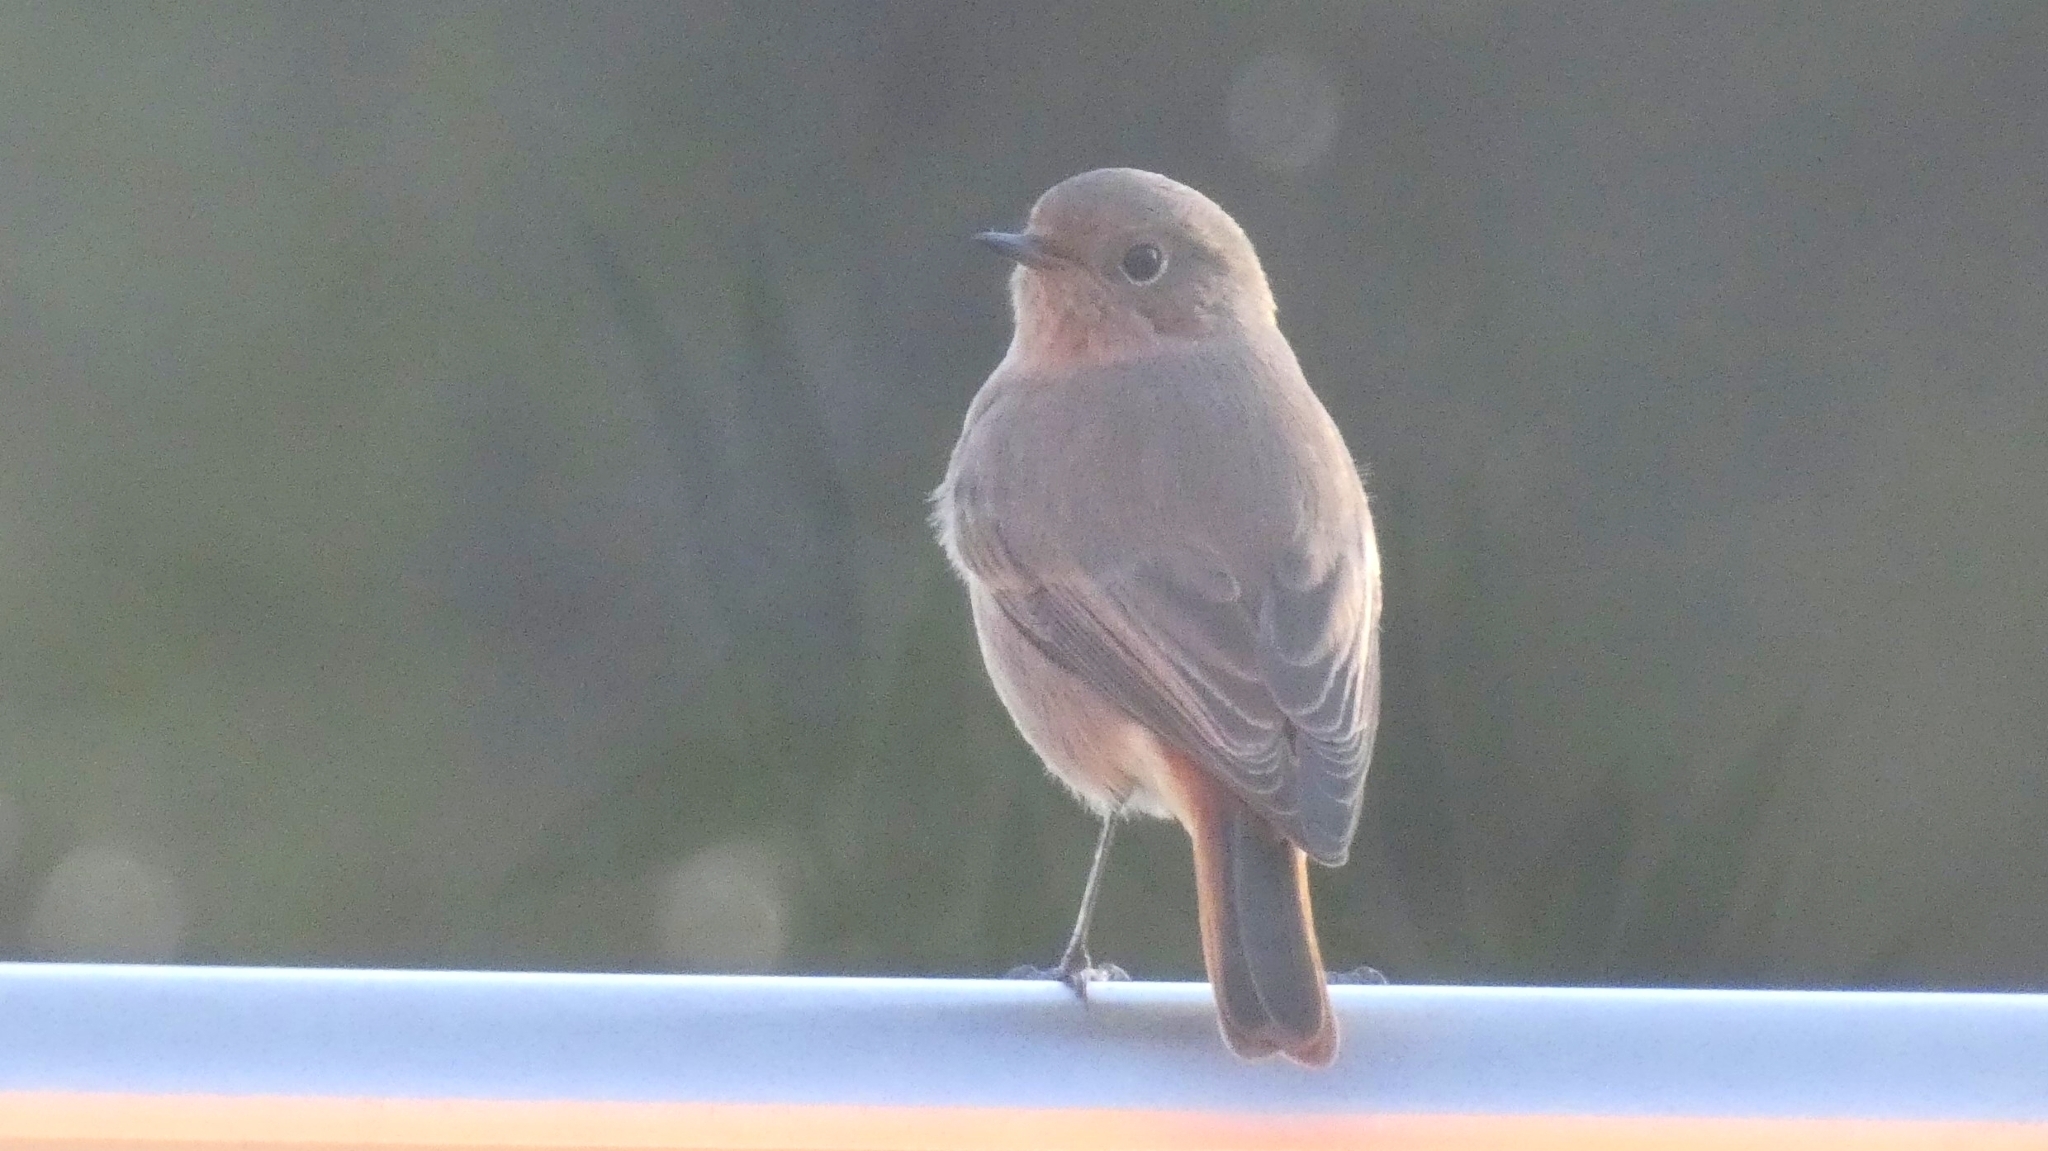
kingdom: Animalia
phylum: Chordata
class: Aves
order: Passeriformes
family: Muscicapidae
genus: Phoenicurus
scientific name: Phoenicurus ochruros
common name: Black redstart
